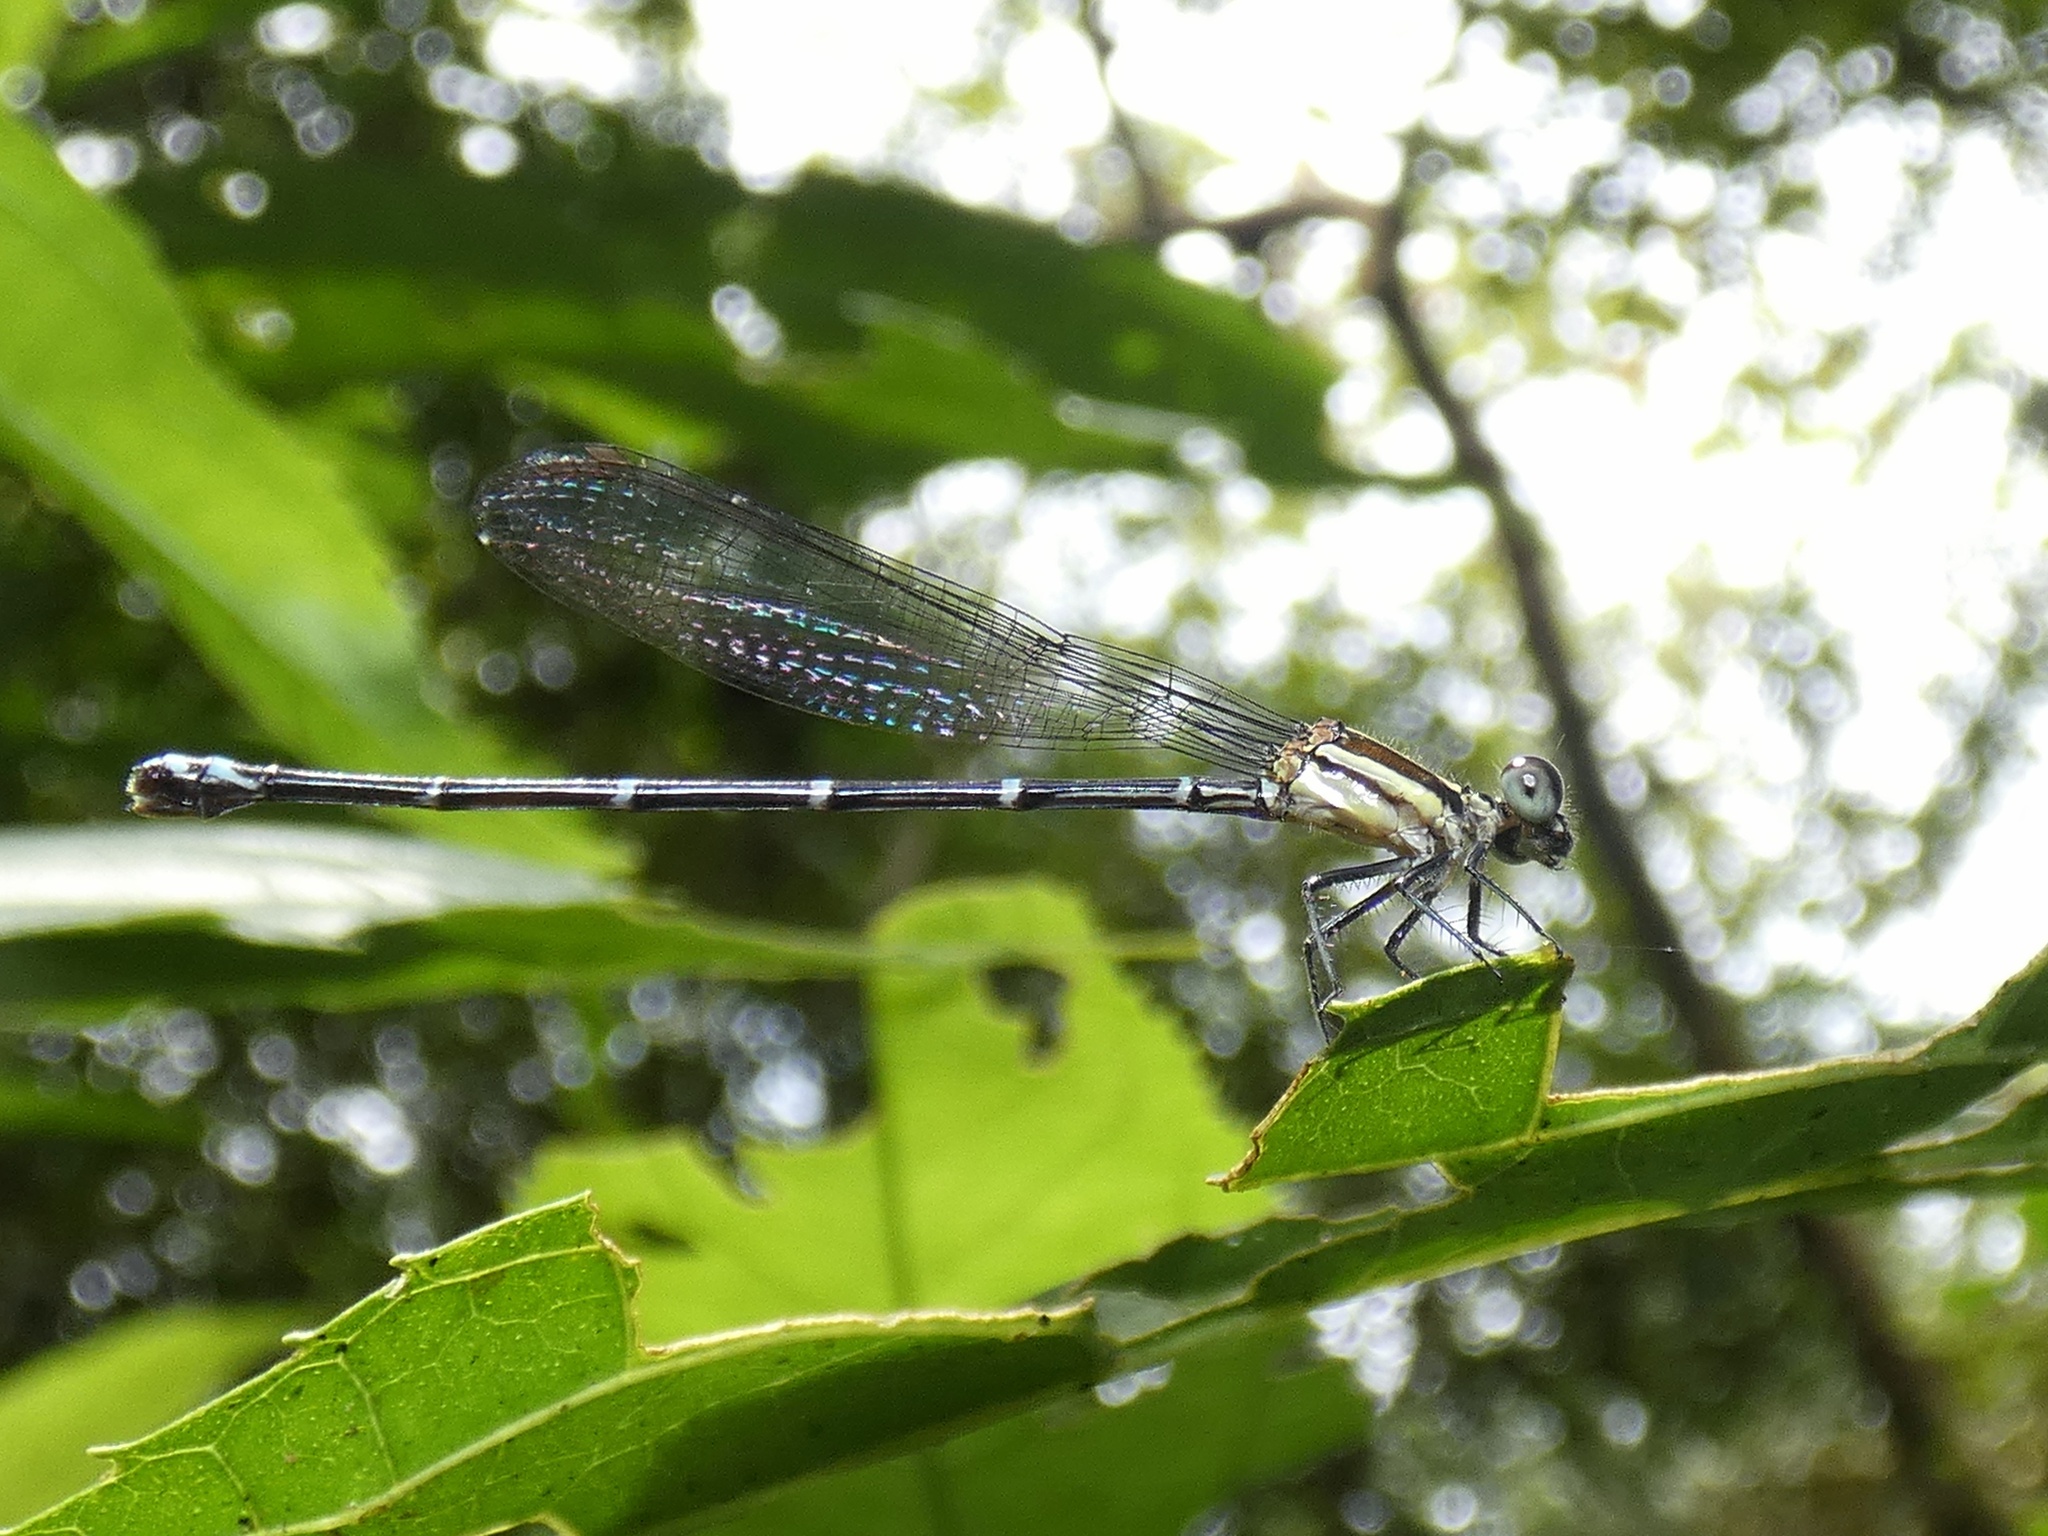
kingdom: Animalia
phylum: Arthropoda
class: Insecta
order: Odonata
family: Coenagrionidae
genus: Argia
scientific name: Argia oculata
